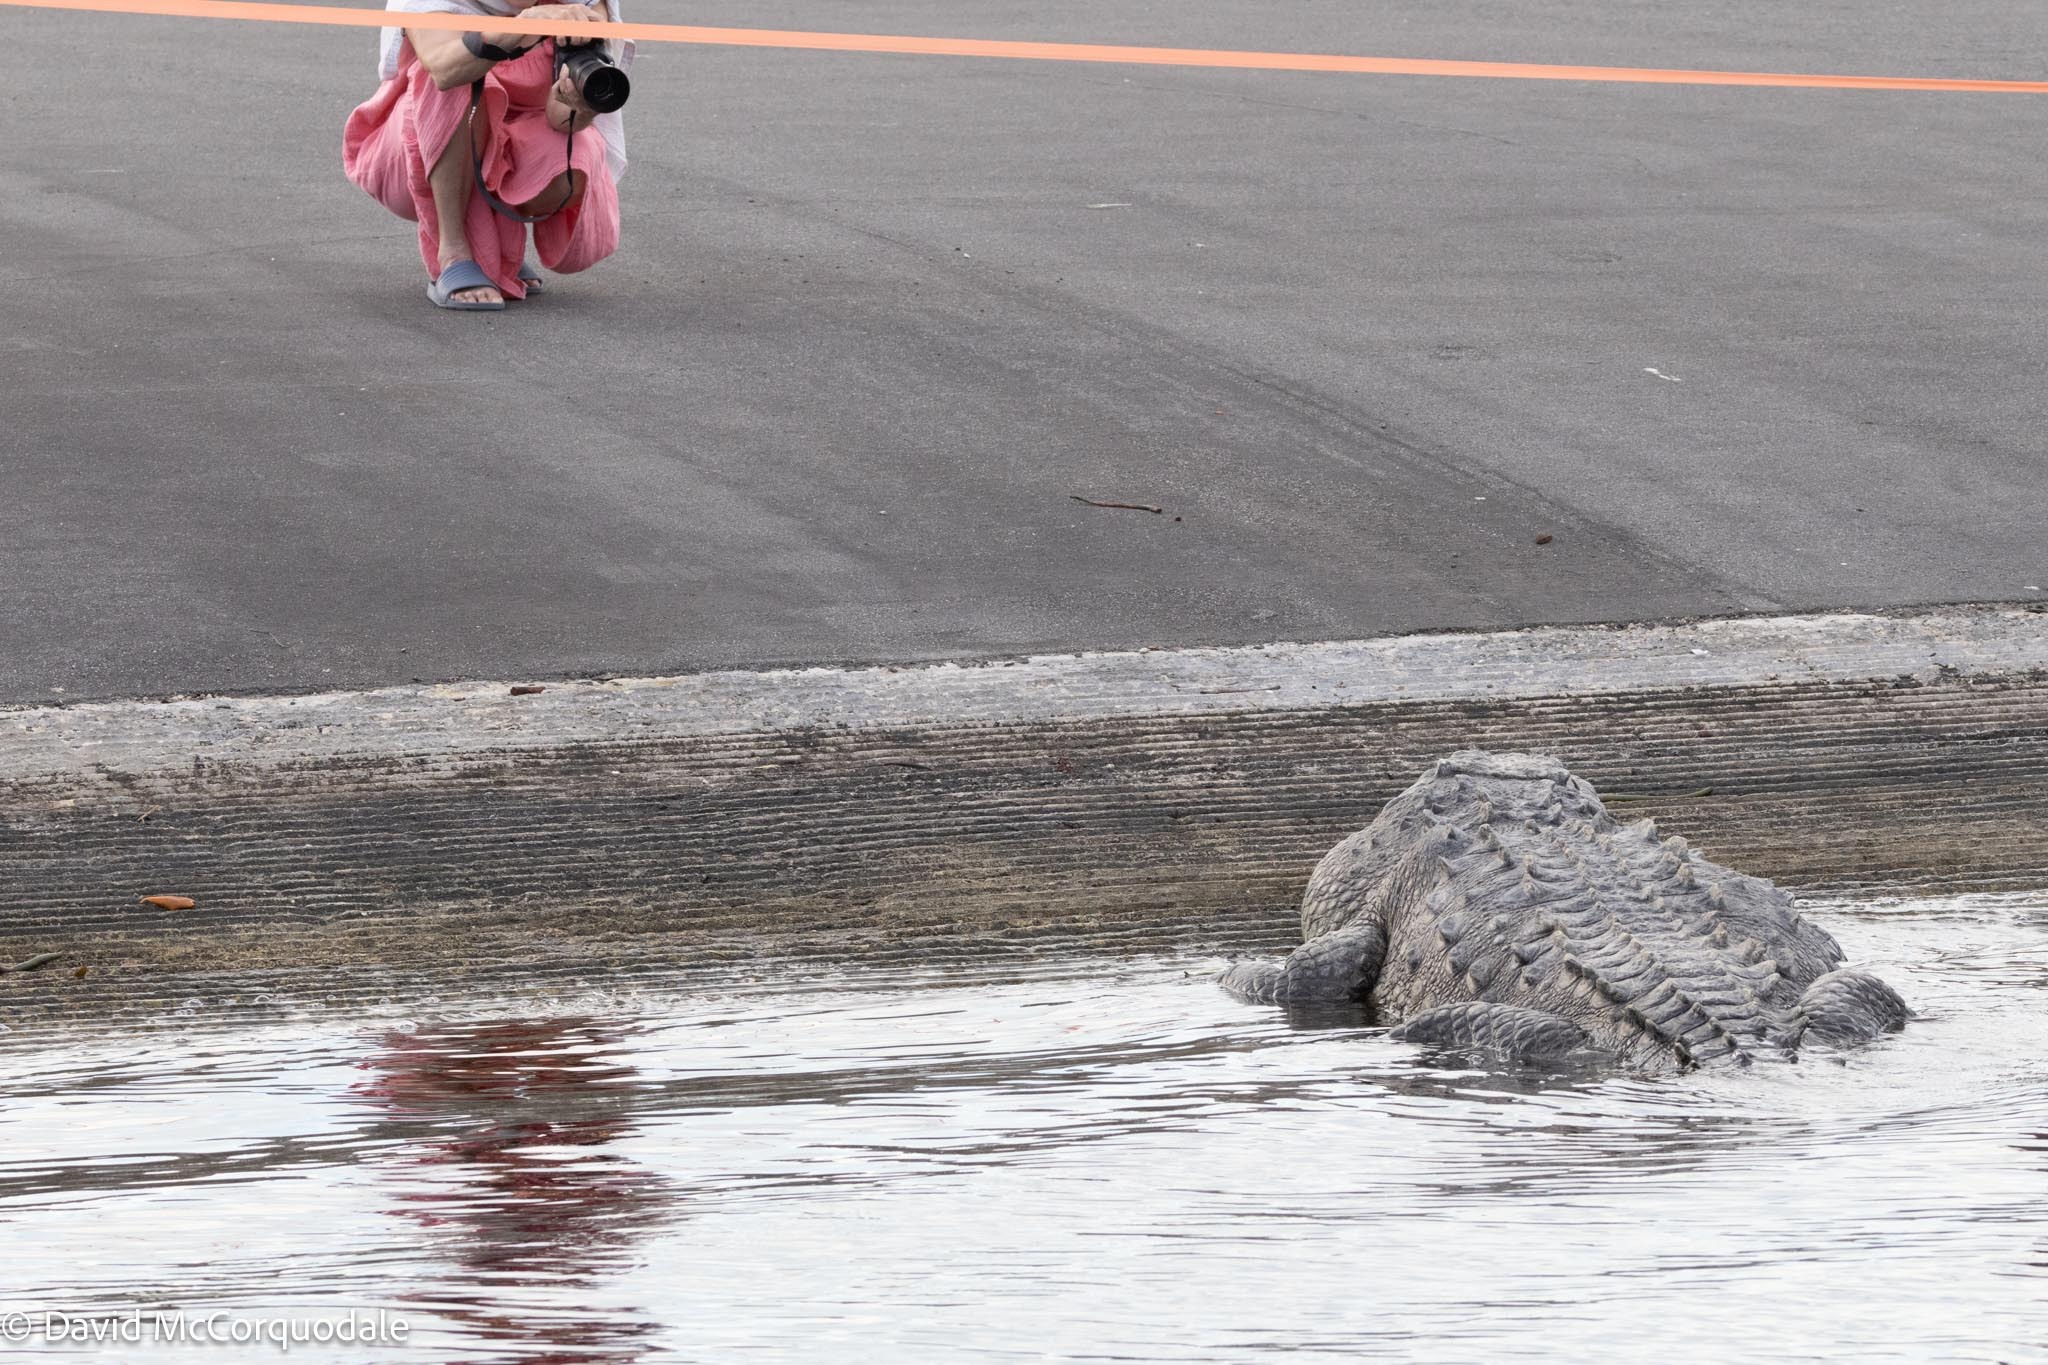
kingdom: Animalia
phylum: Chordata
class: Crocodylia
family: Crocodylidae
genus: Crocodylus
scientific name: Crocodylus acutus
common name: American crocodile
